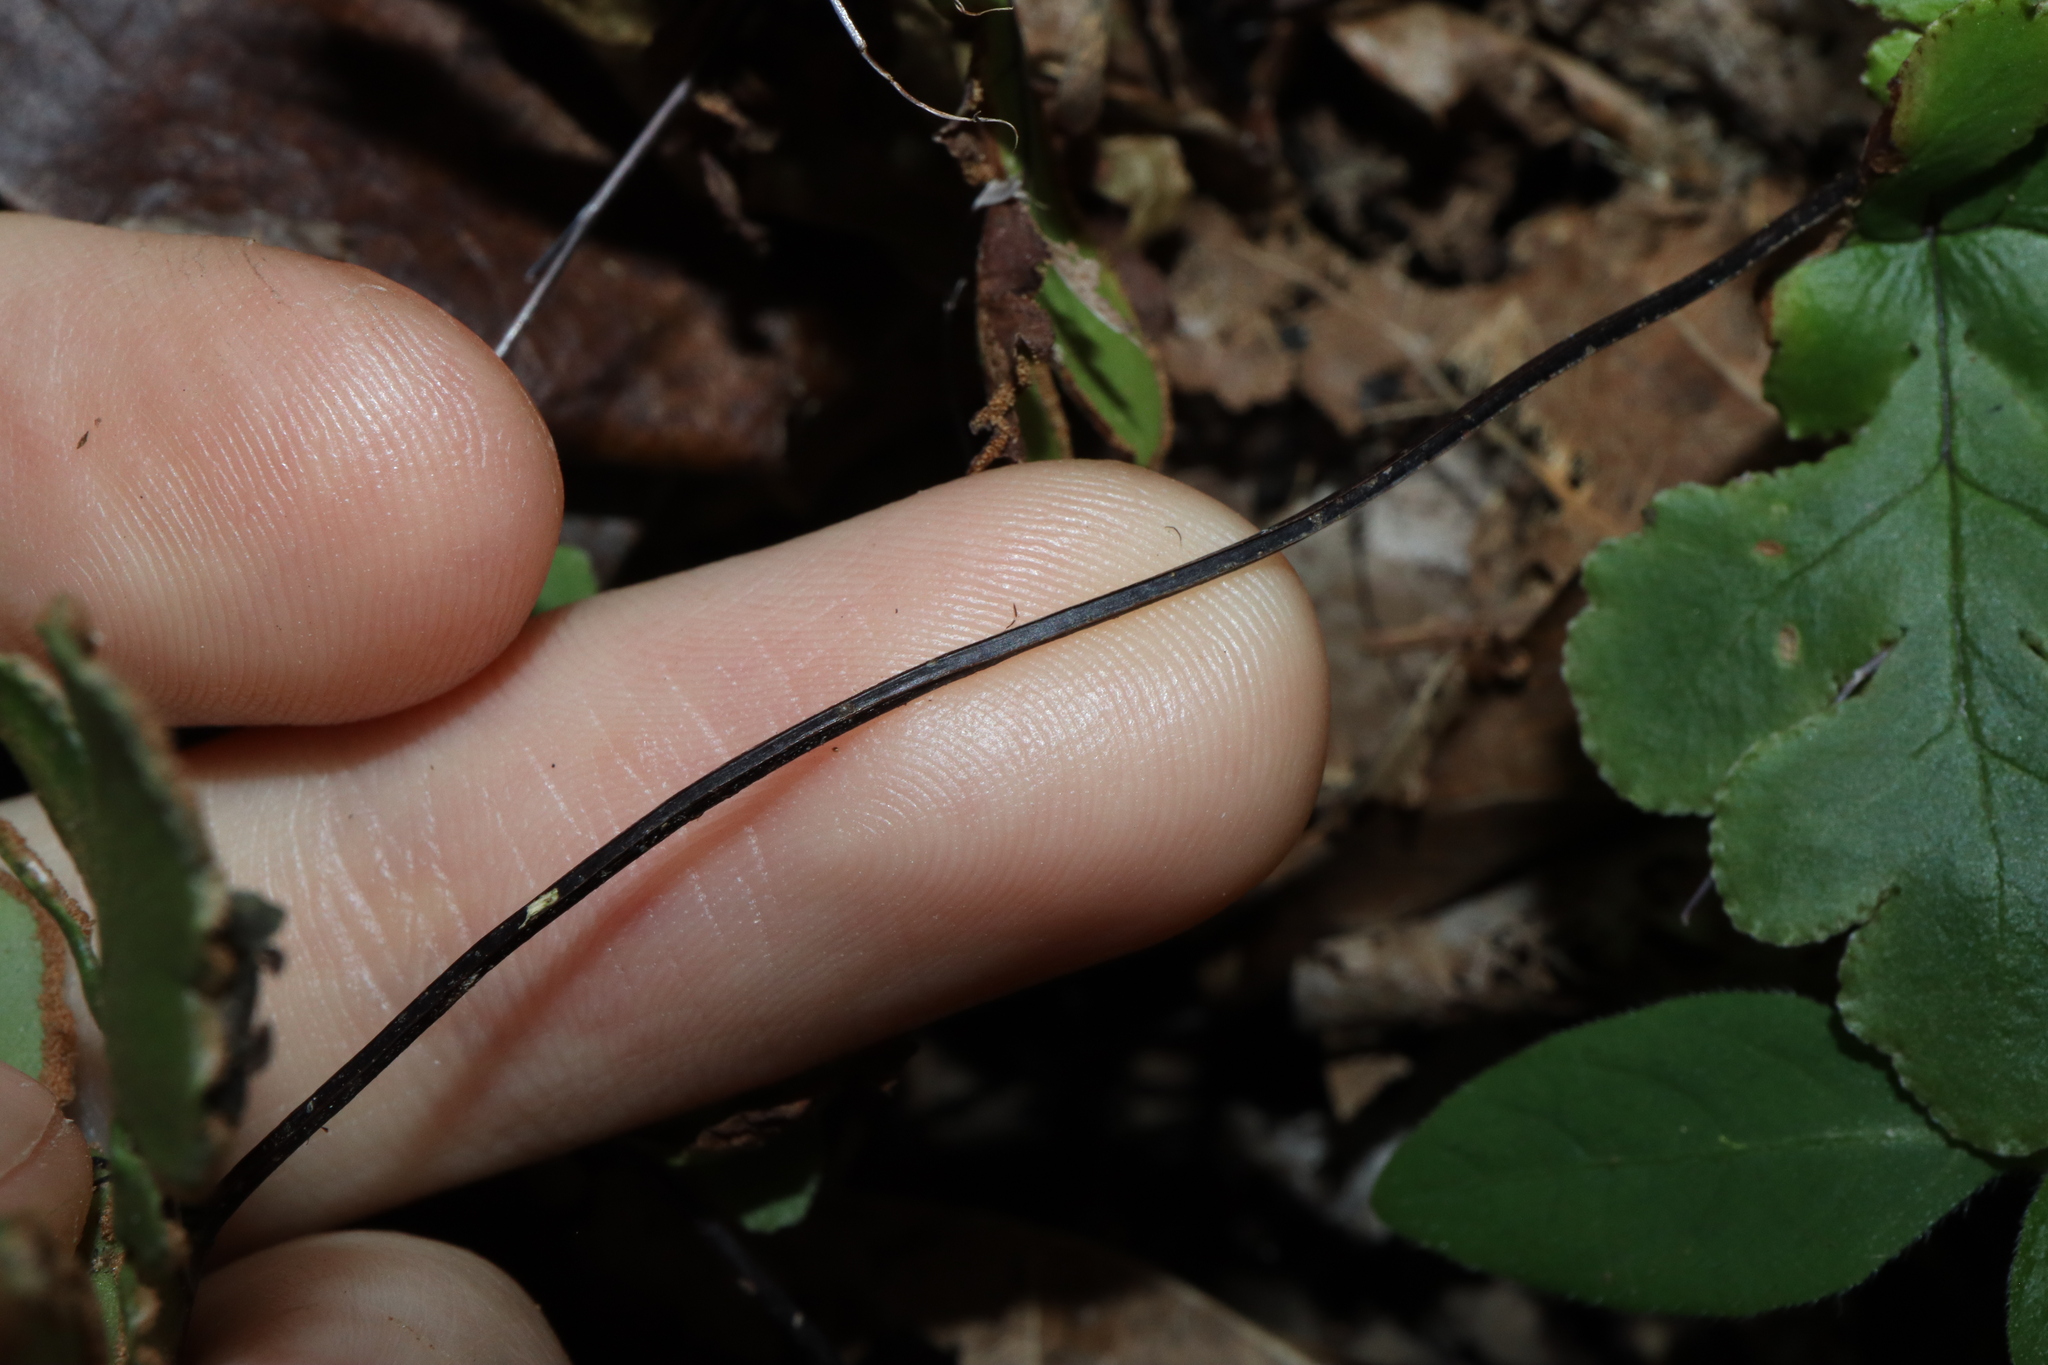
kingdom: Plantae
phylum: Tracheophyta
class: Polypodiopsida
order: Polypodiales
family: Pteridaceae
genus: Doryopteris
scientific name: Doryopteris concolor
